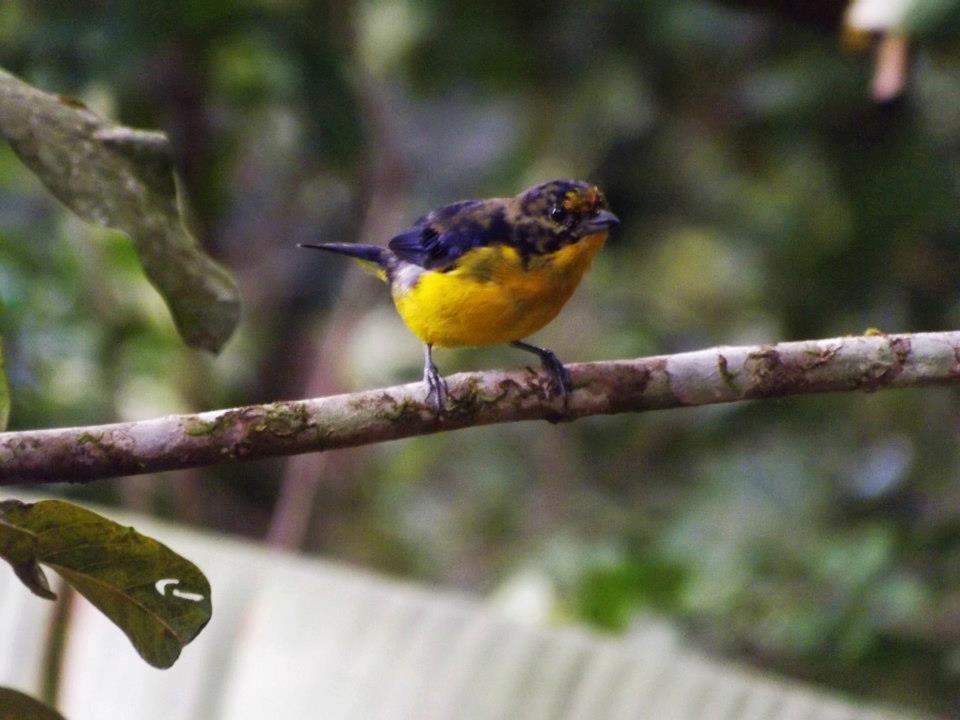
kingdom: Animalia
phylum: Chordata
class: Aves
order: Passeriformes
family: Fringillidae
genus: Euphonia
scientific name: Euphonia violacea
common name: Violaceous euphonia
